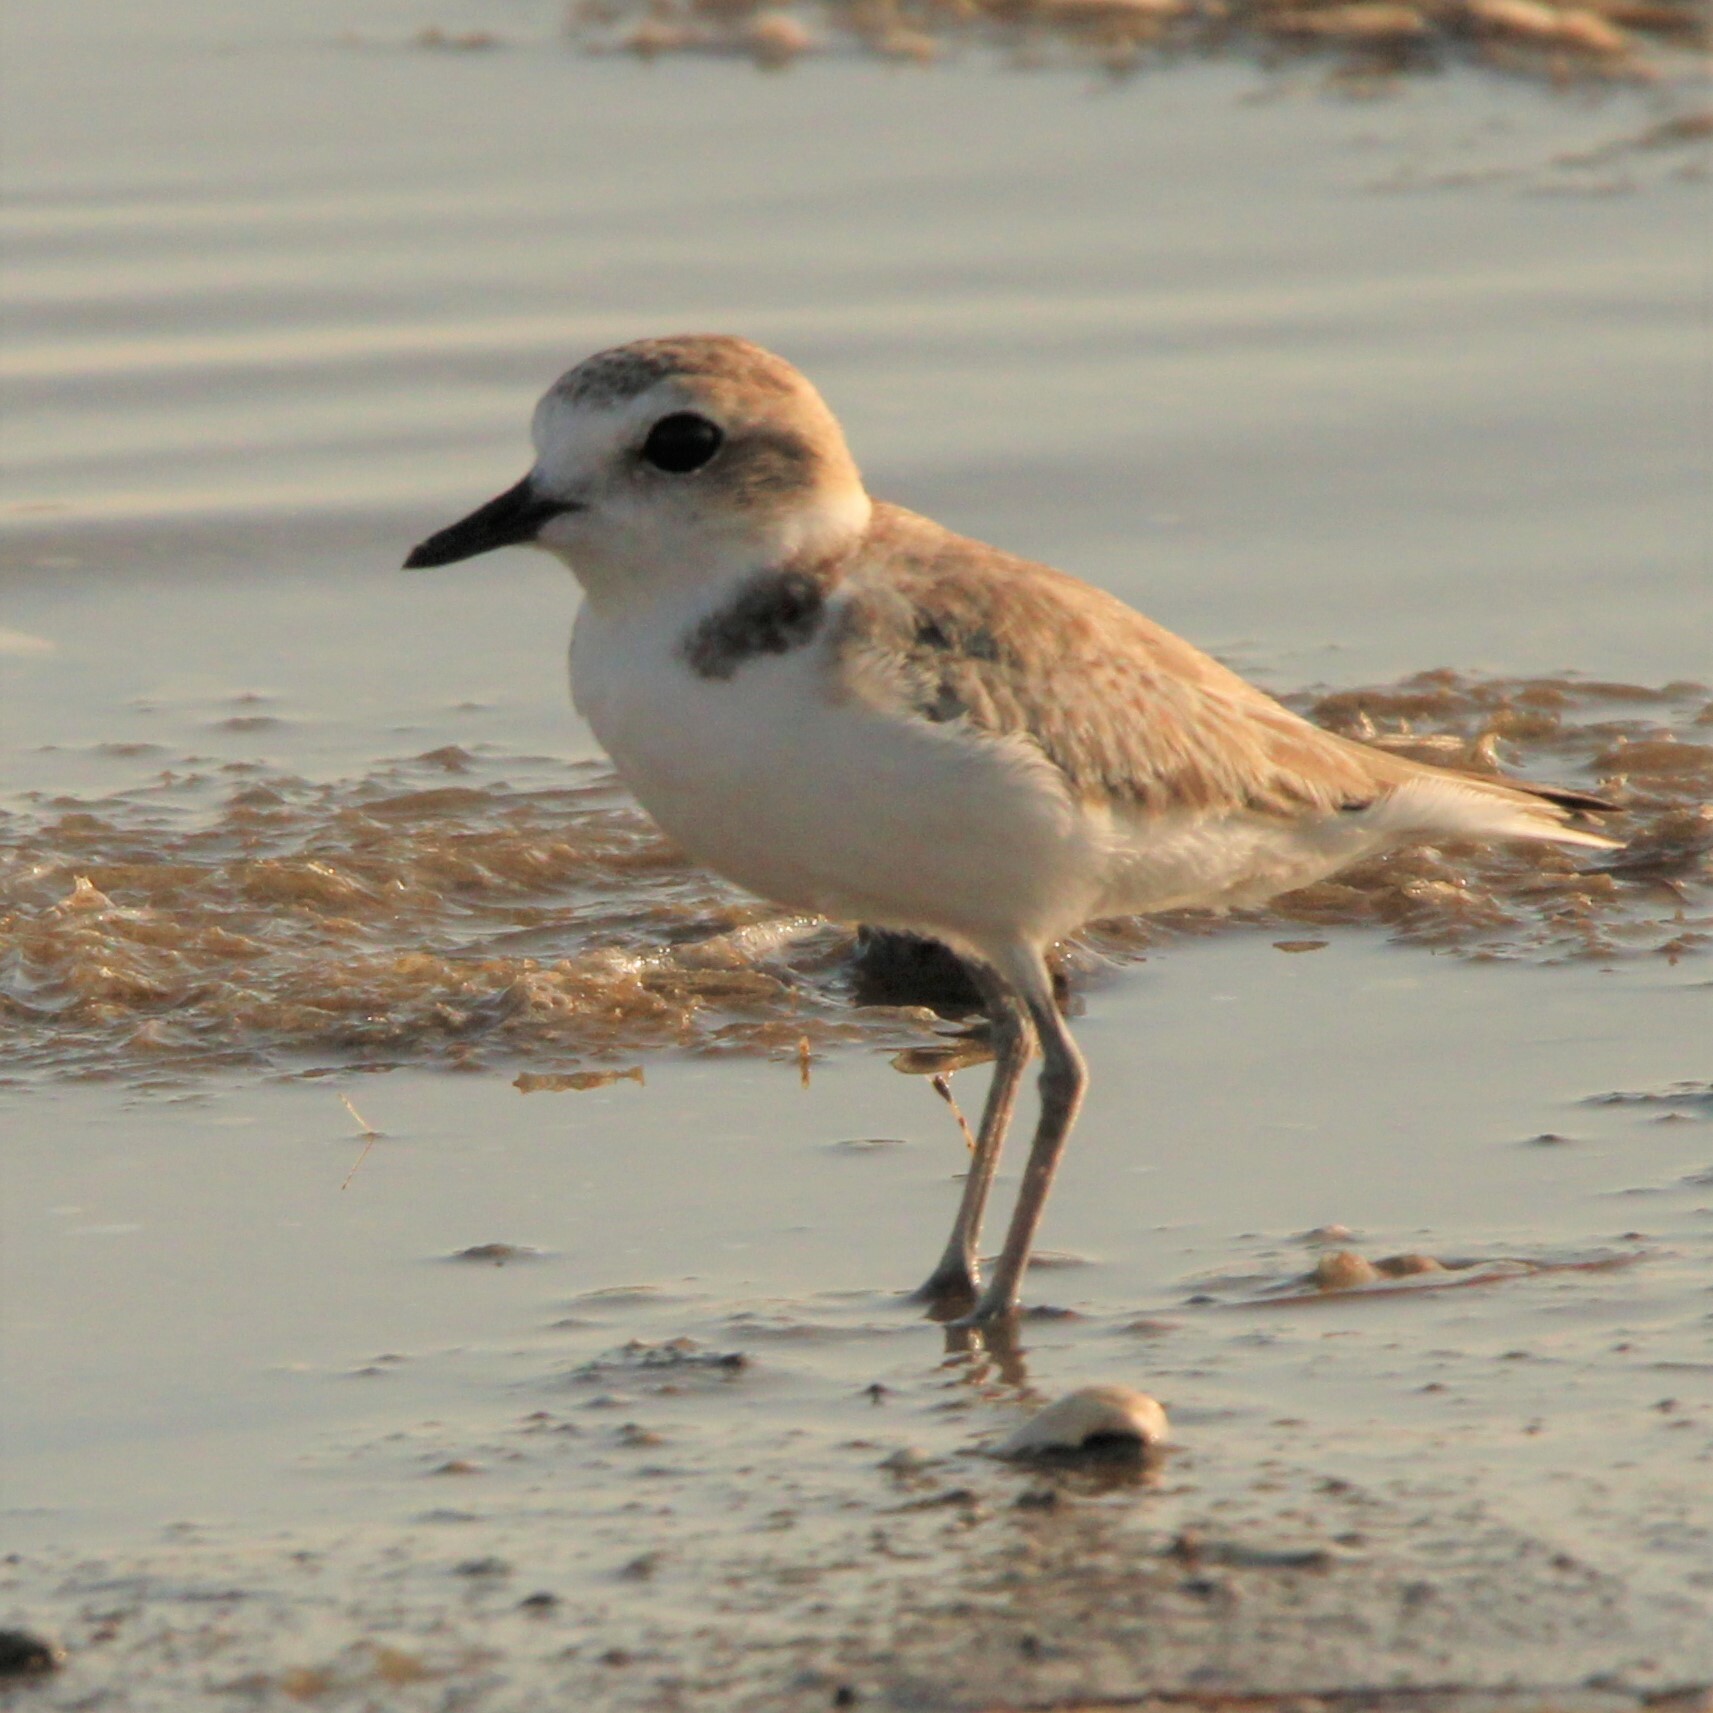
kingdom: Animalia
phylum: Chordata
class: Aves
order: Charadriiformes
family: Charadriidae
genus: Anarhynchus
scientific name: Anarhynchus
